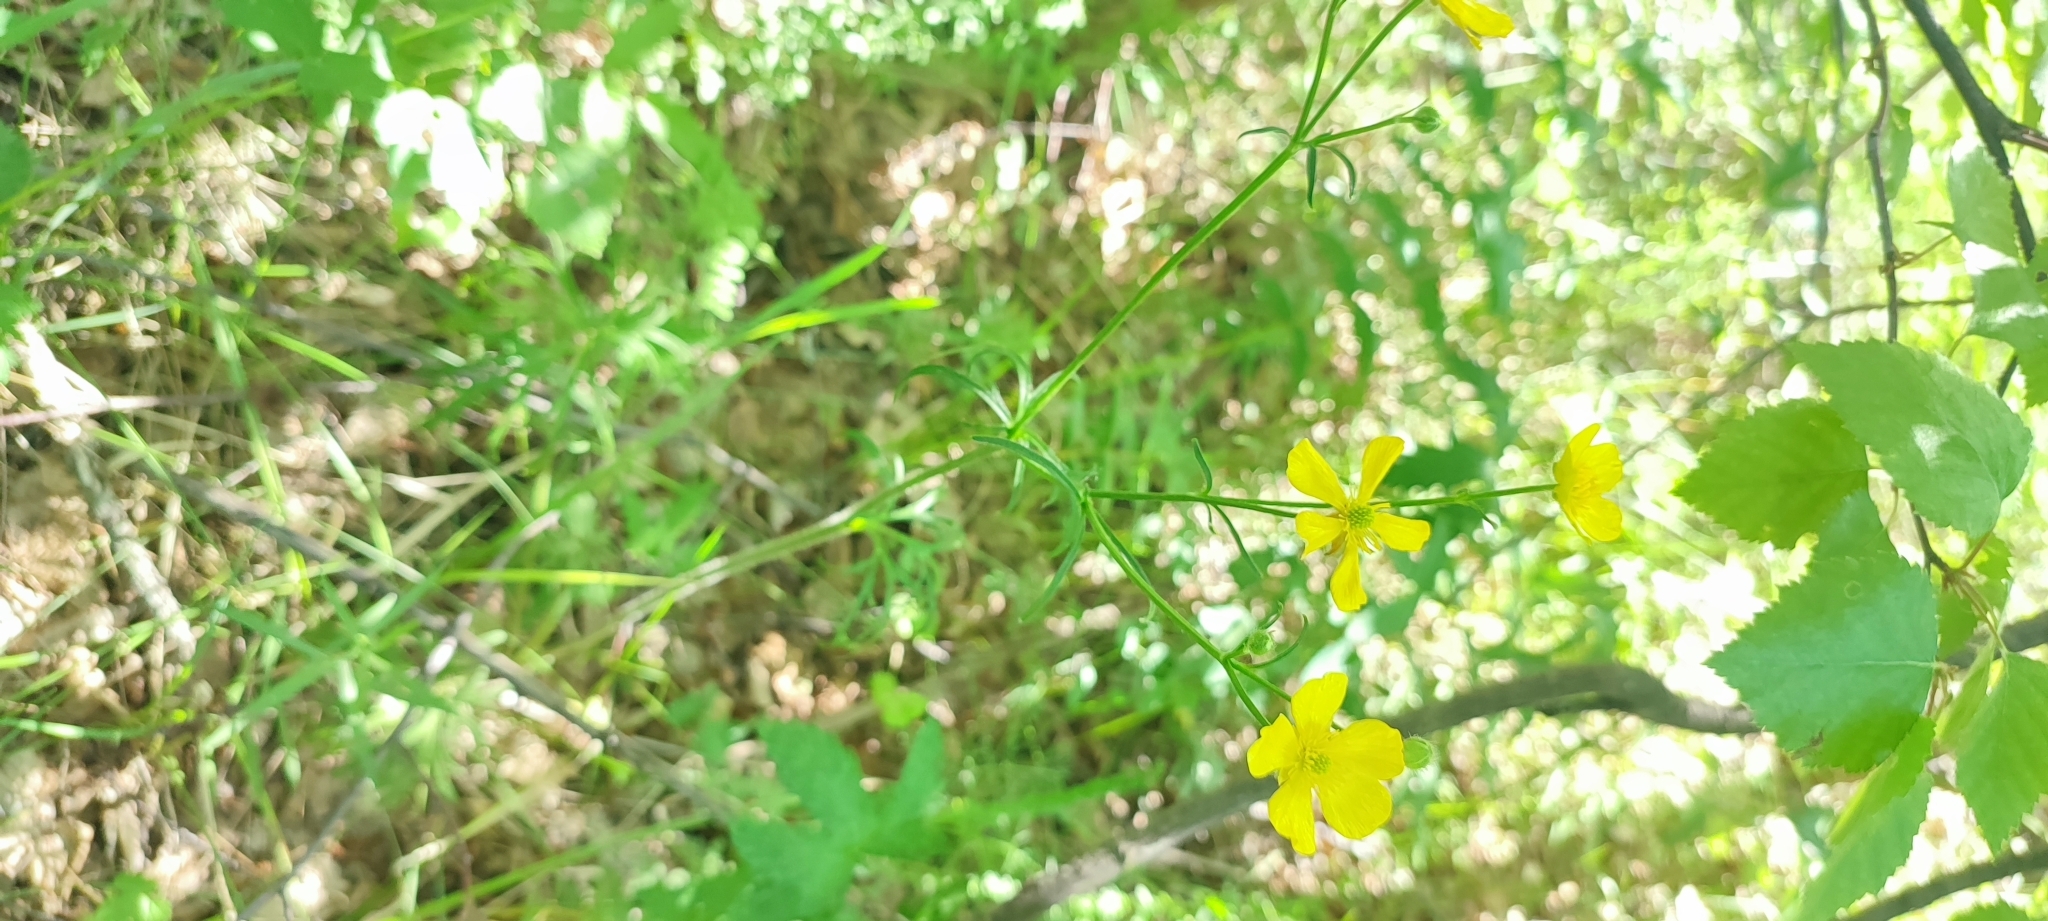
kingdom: Plantae
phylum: Tracheophyta
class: Magnoliopsida
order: Ranunculales
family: Ranunculaceae
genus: Ranunculus
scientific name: Ranunculus polyanthemos
